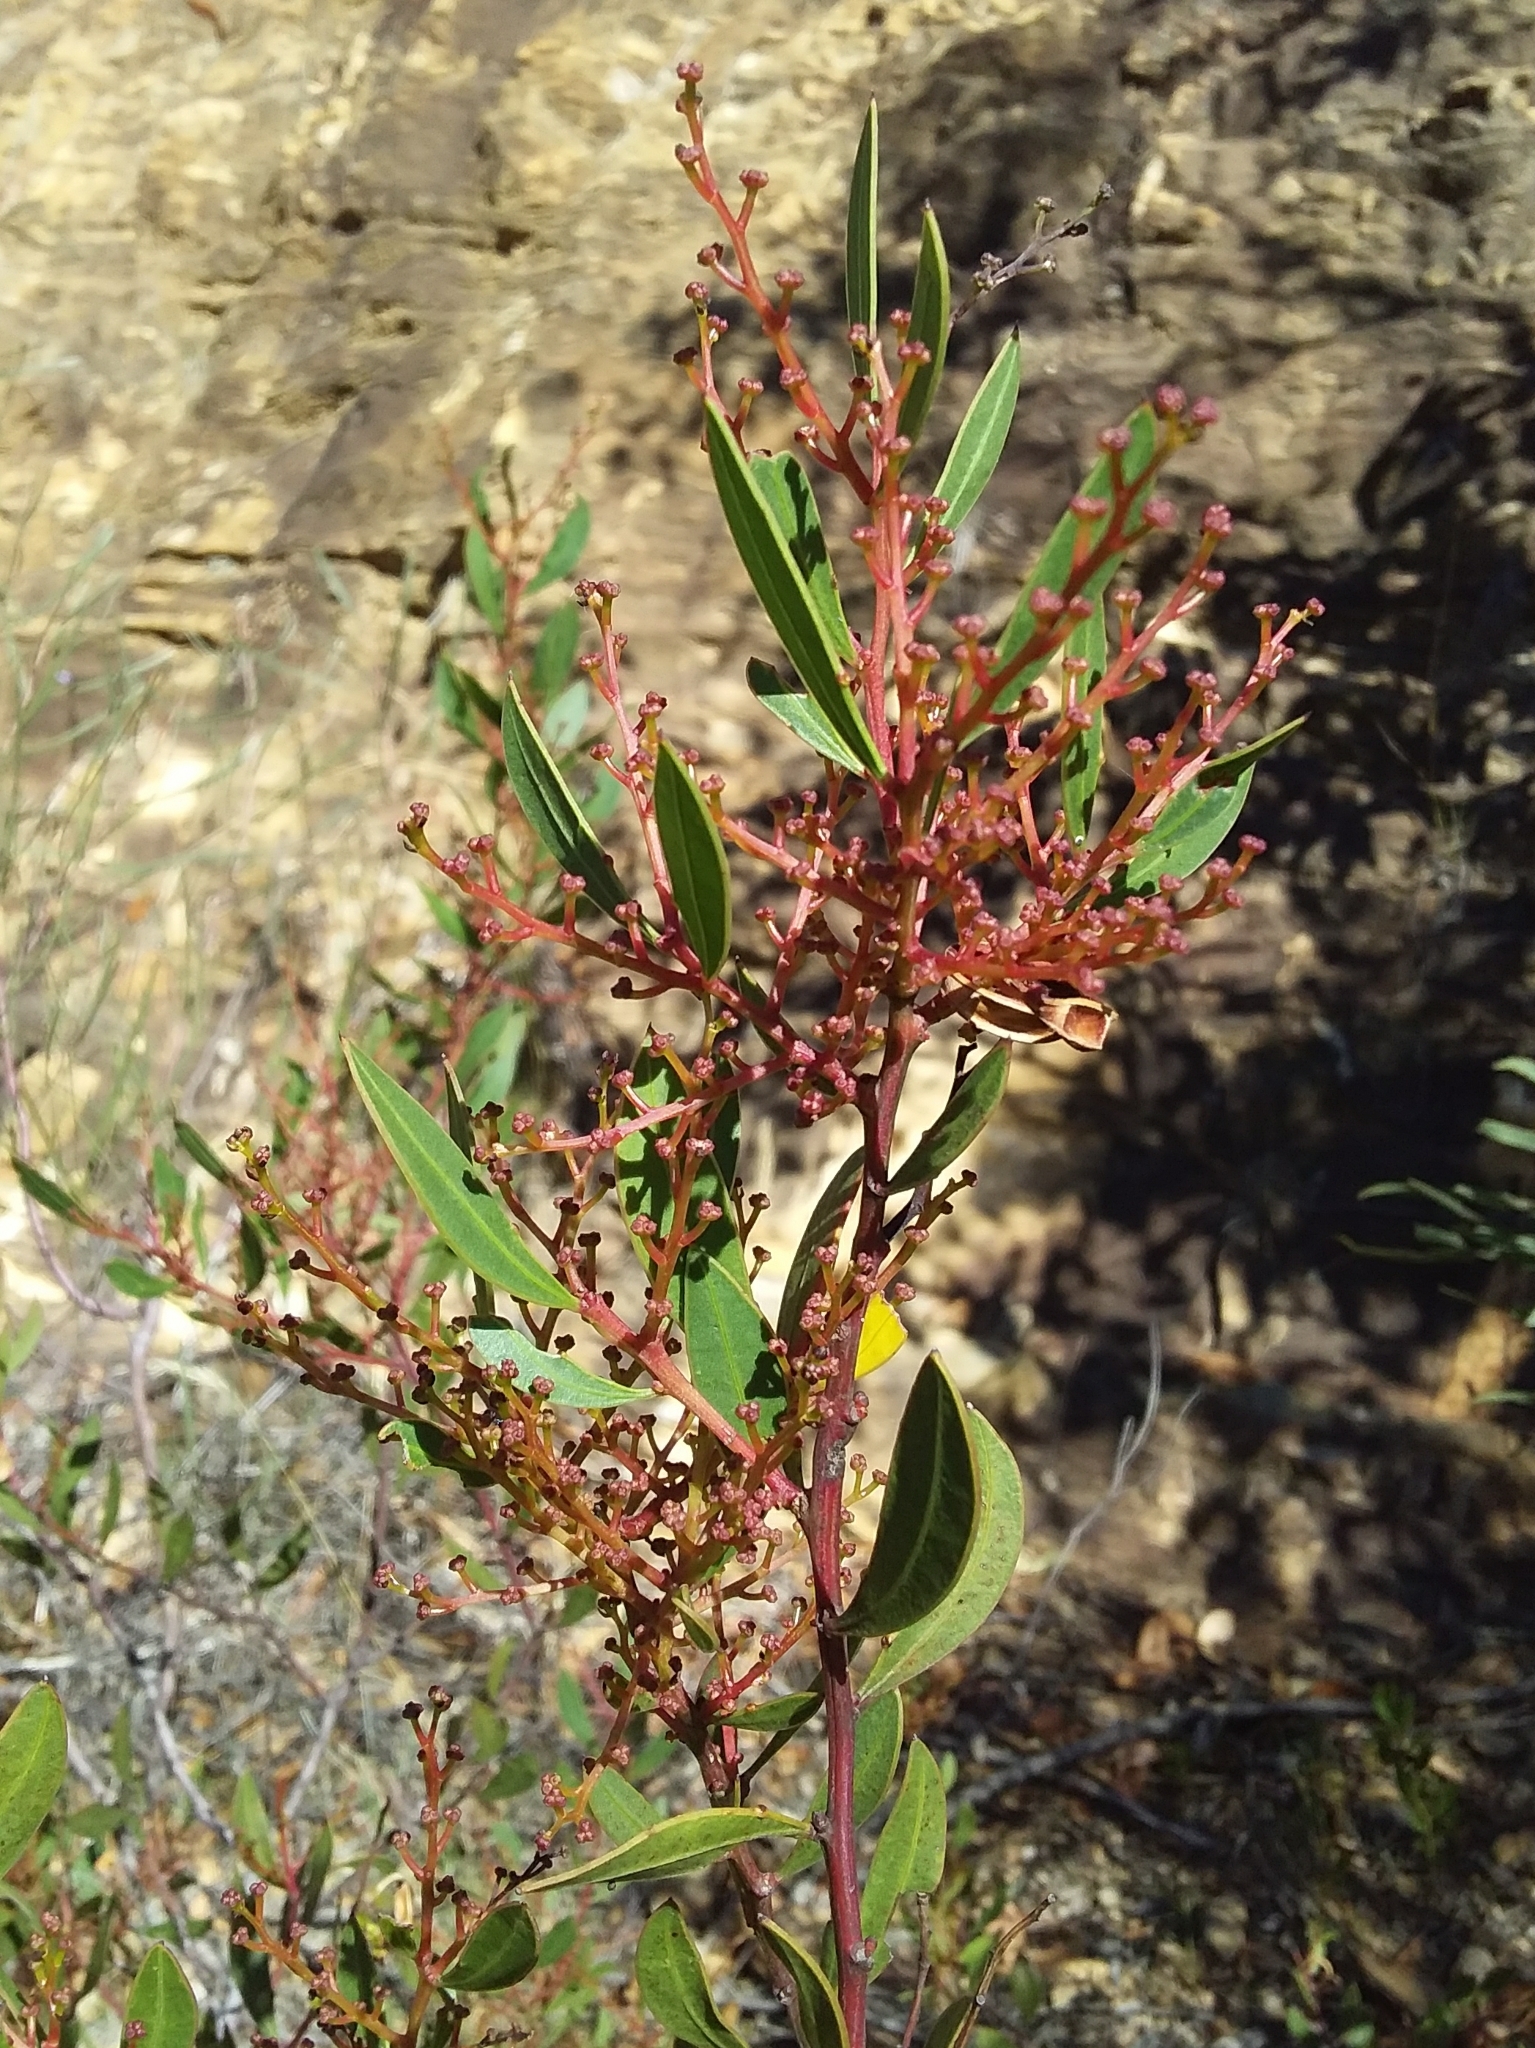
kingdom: Plantae
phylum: Tracheophyta
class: Magnoliopsida
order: Fabales
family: Fabaceae
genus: Acacia
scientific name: Acacia myrtifolia
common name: Myrtle wattle
